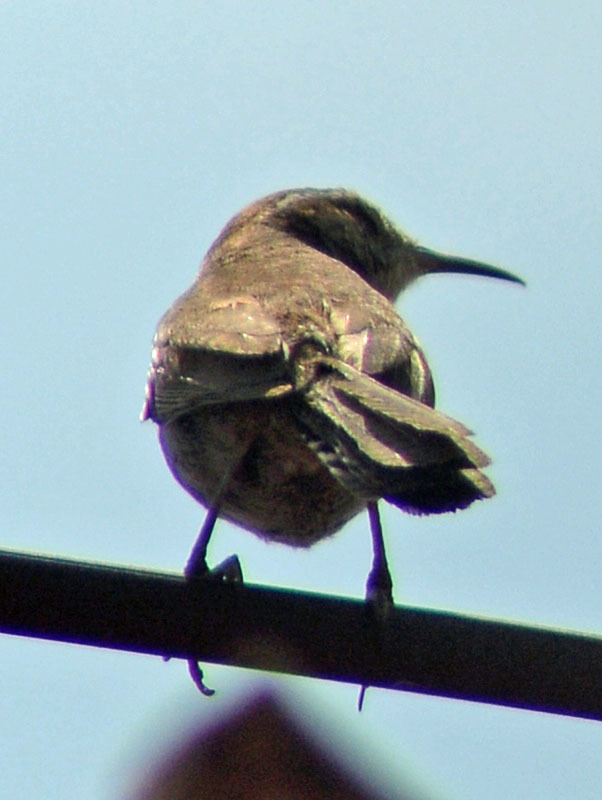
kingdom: Animalia
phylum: Chordata
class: Aves
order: Passeriformes
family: Troglodytidae
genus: Thryomanes
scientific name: Thryomanes bewickii
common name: Bewick's wren
